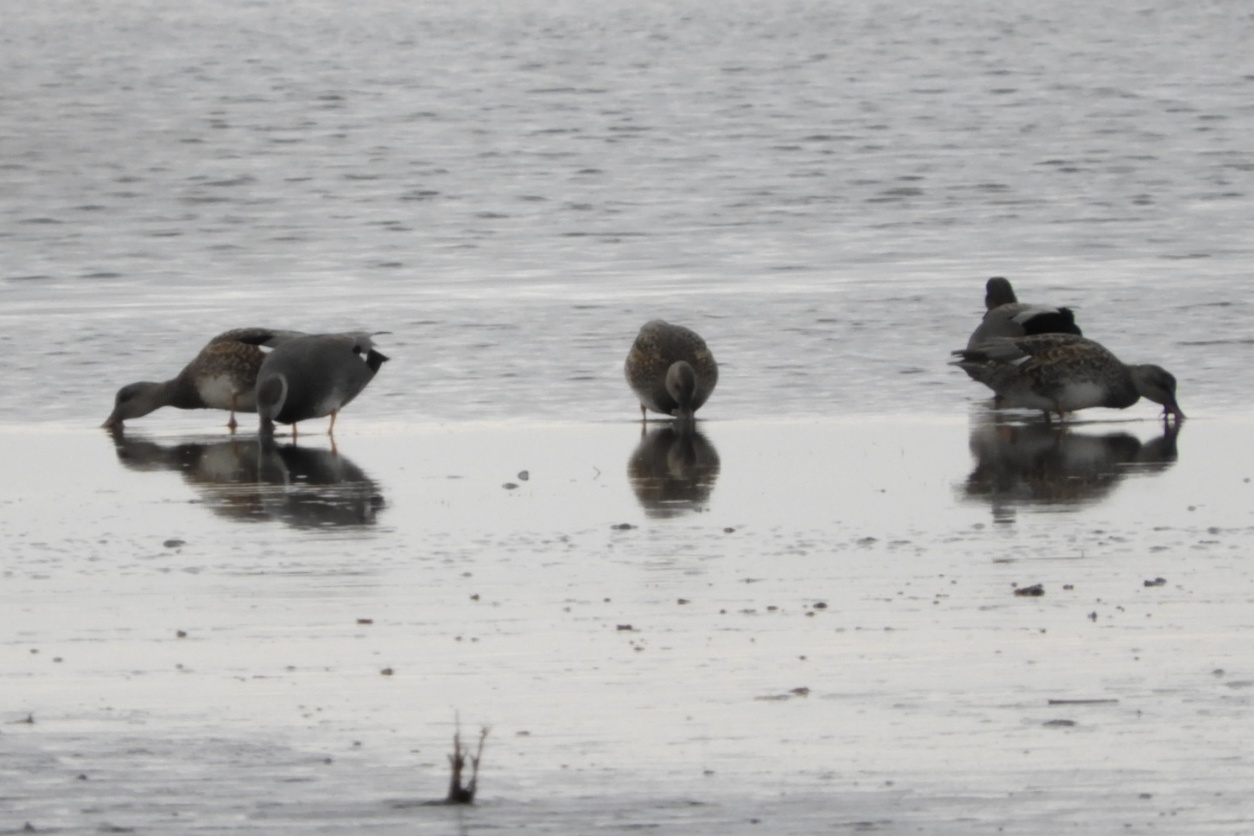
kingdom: Animalia
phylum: Chordata
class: Aves
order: Anseriformes
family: Anatidae
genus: Mareca
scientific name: Mareca strepera
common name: Gadwall
